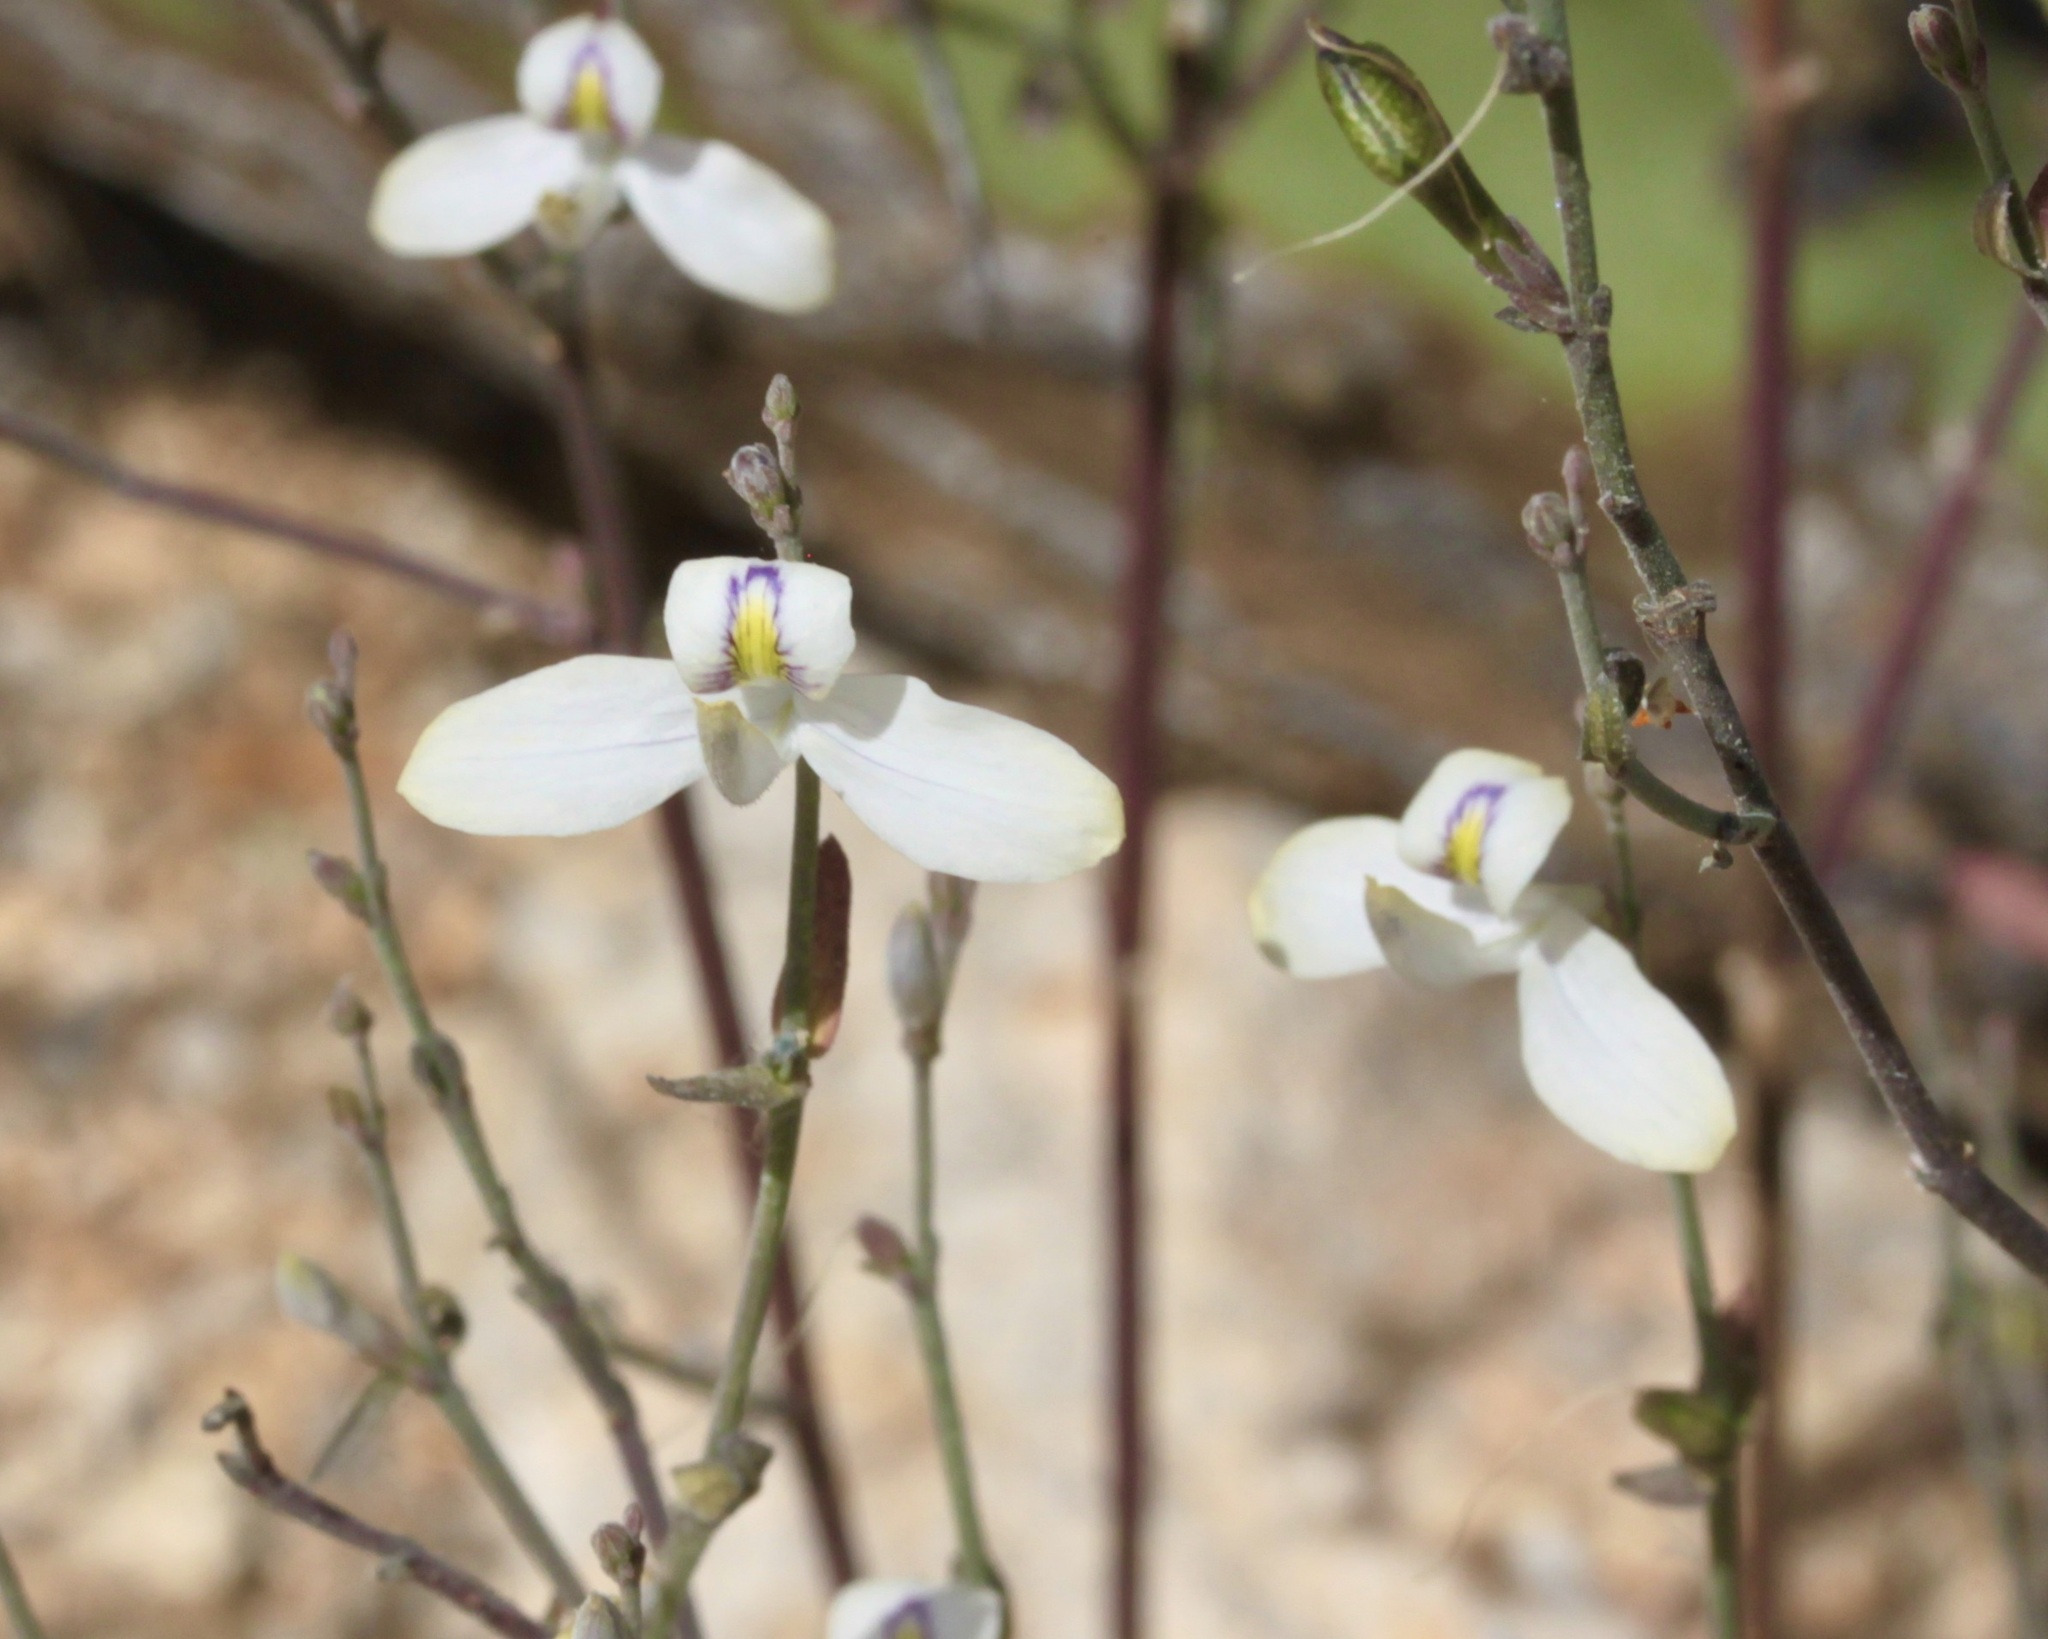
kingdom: Plantae
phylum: Tracheophyta
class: Magnoliopsida
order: Lamiales
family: Acanthaceae
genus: Carlowrightia
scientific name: Carlowrightia arizonica
